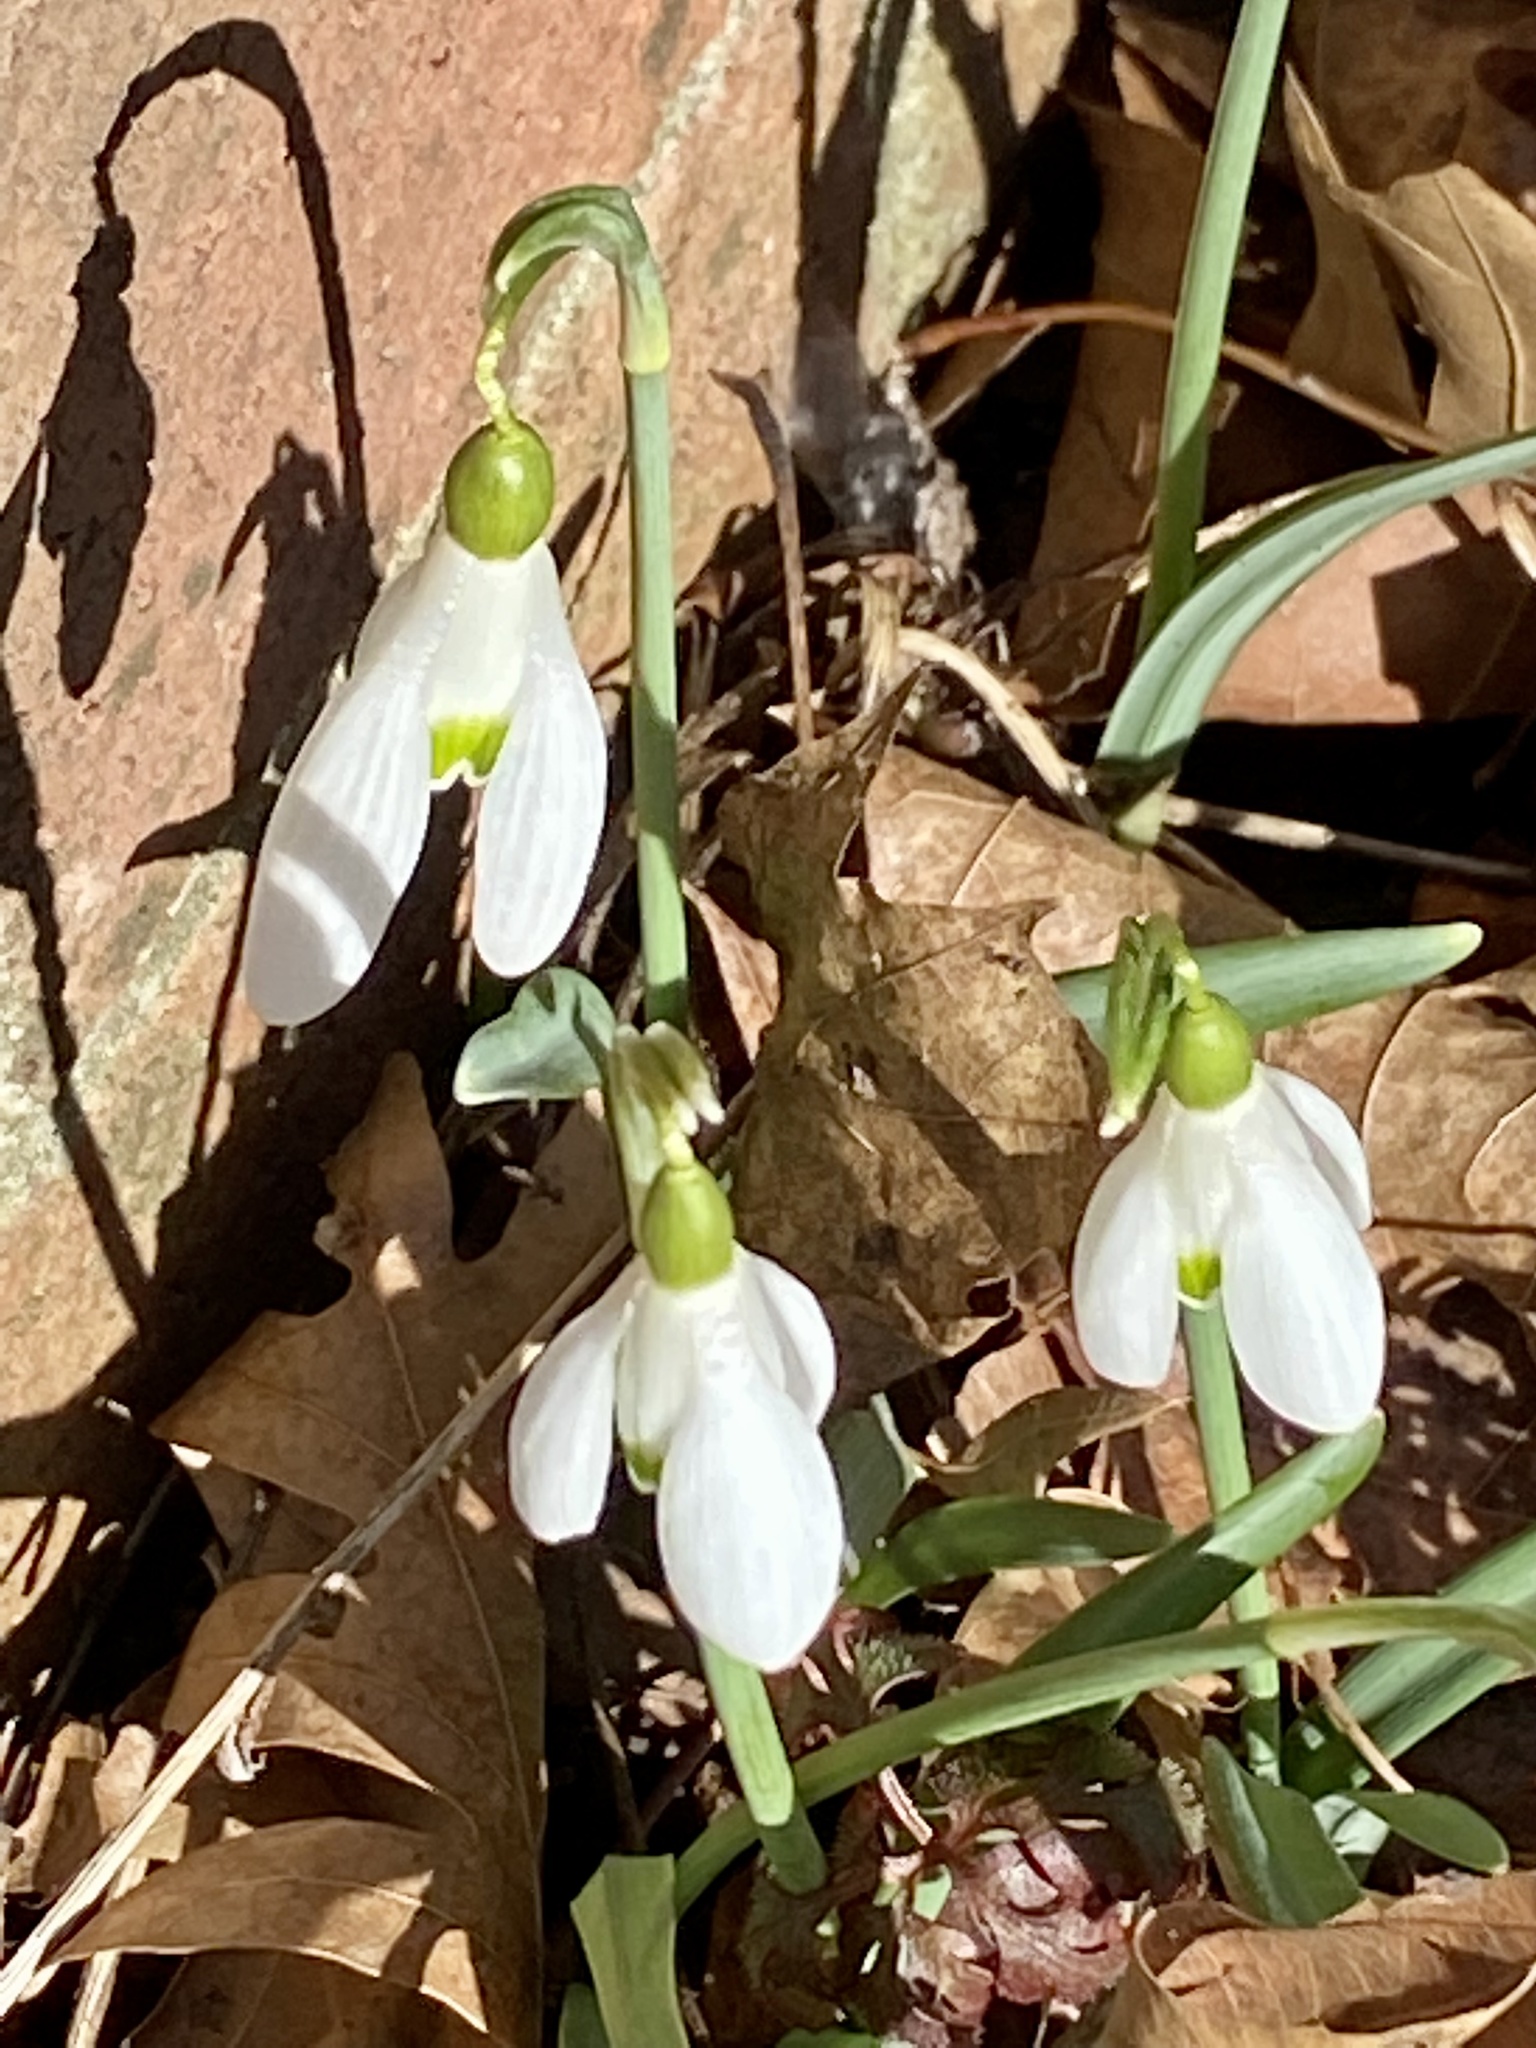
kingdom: Plantae
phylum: Tracheophyta
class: Liliopsida
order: Asparagales
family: Amaryllidaceae
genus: Galanthus
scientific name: Galanthus nivalis
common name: Snowdrop
